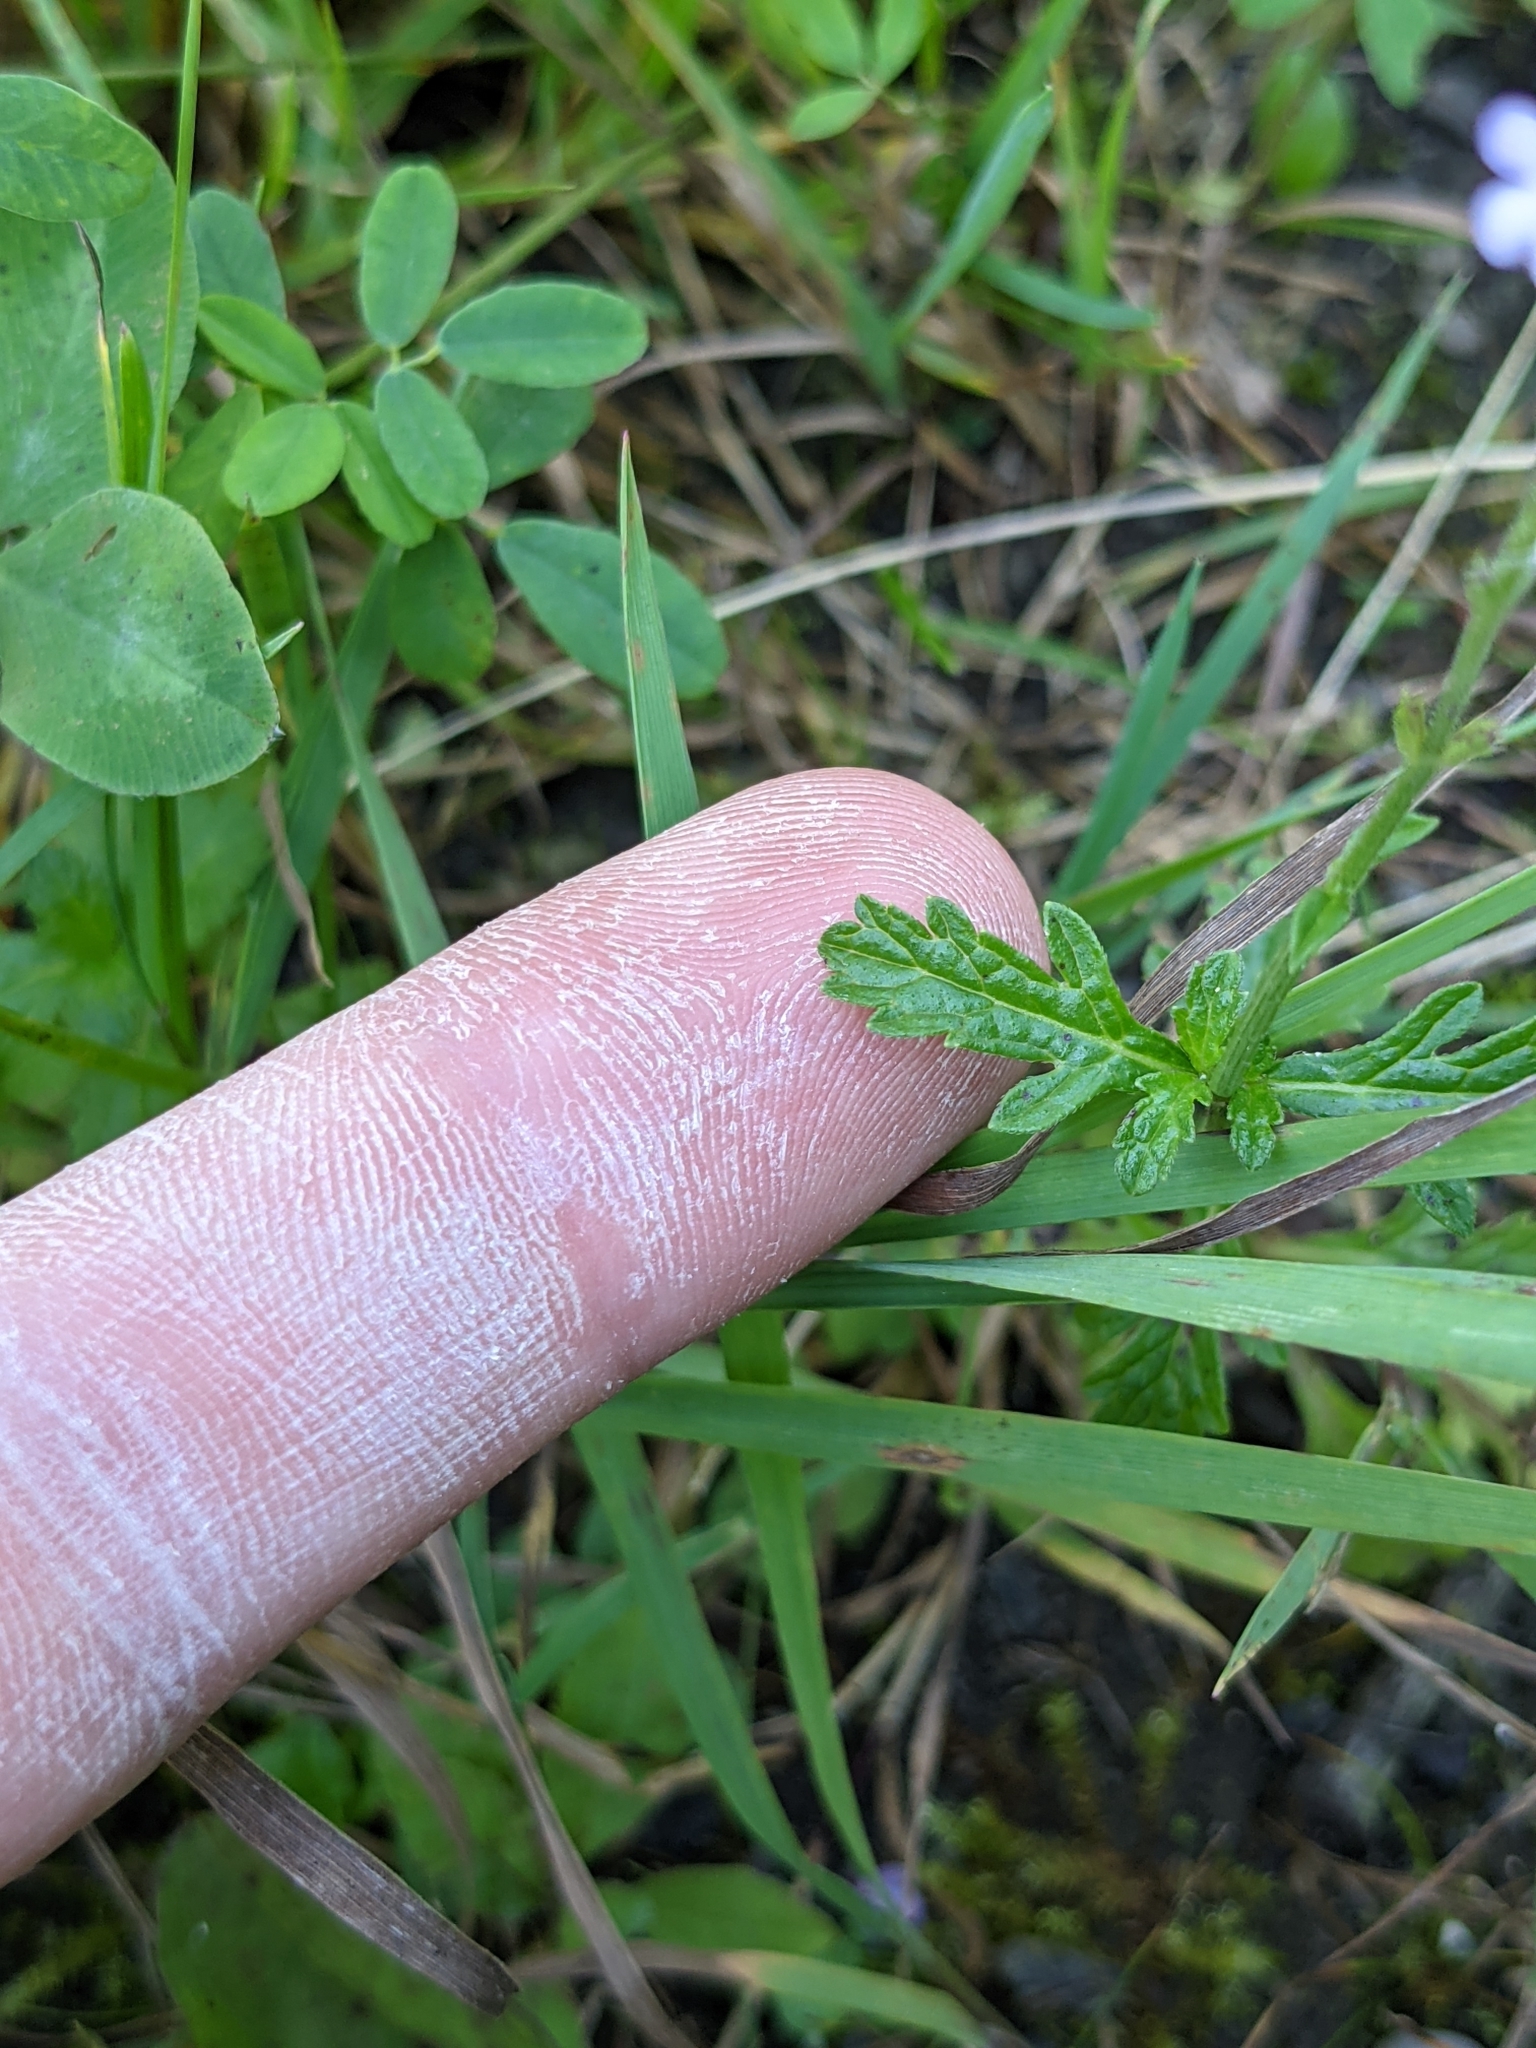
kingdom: Plantae
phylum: Tracheophyta
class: Magnoliopsida
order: Lamiales
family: Verbenaceae
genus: Verbena
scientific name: Verbena officinalis
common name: Vervain
